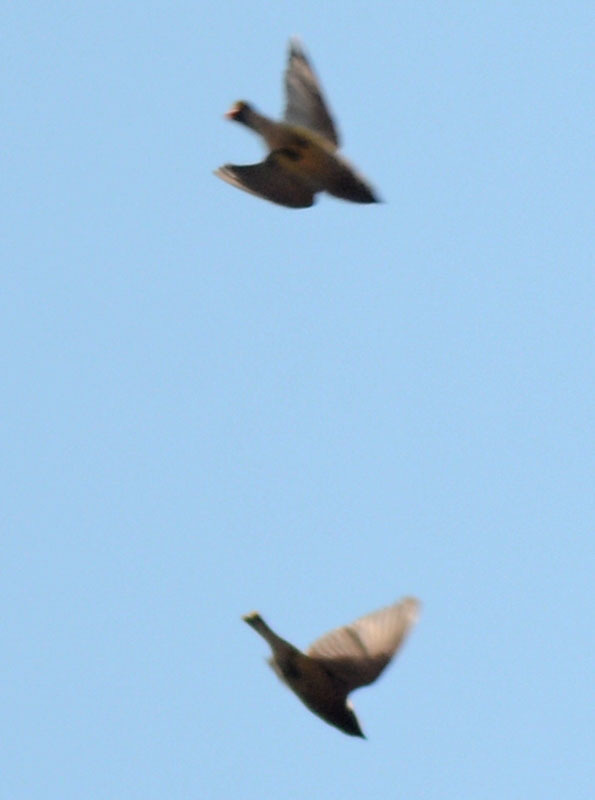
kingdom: Animalia
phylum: Chordata
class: Aves
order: Passeriformes
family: Bombycillidae
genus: Bombycilla
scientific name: Bombycilla cedrorum
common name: Cedar waxwing
